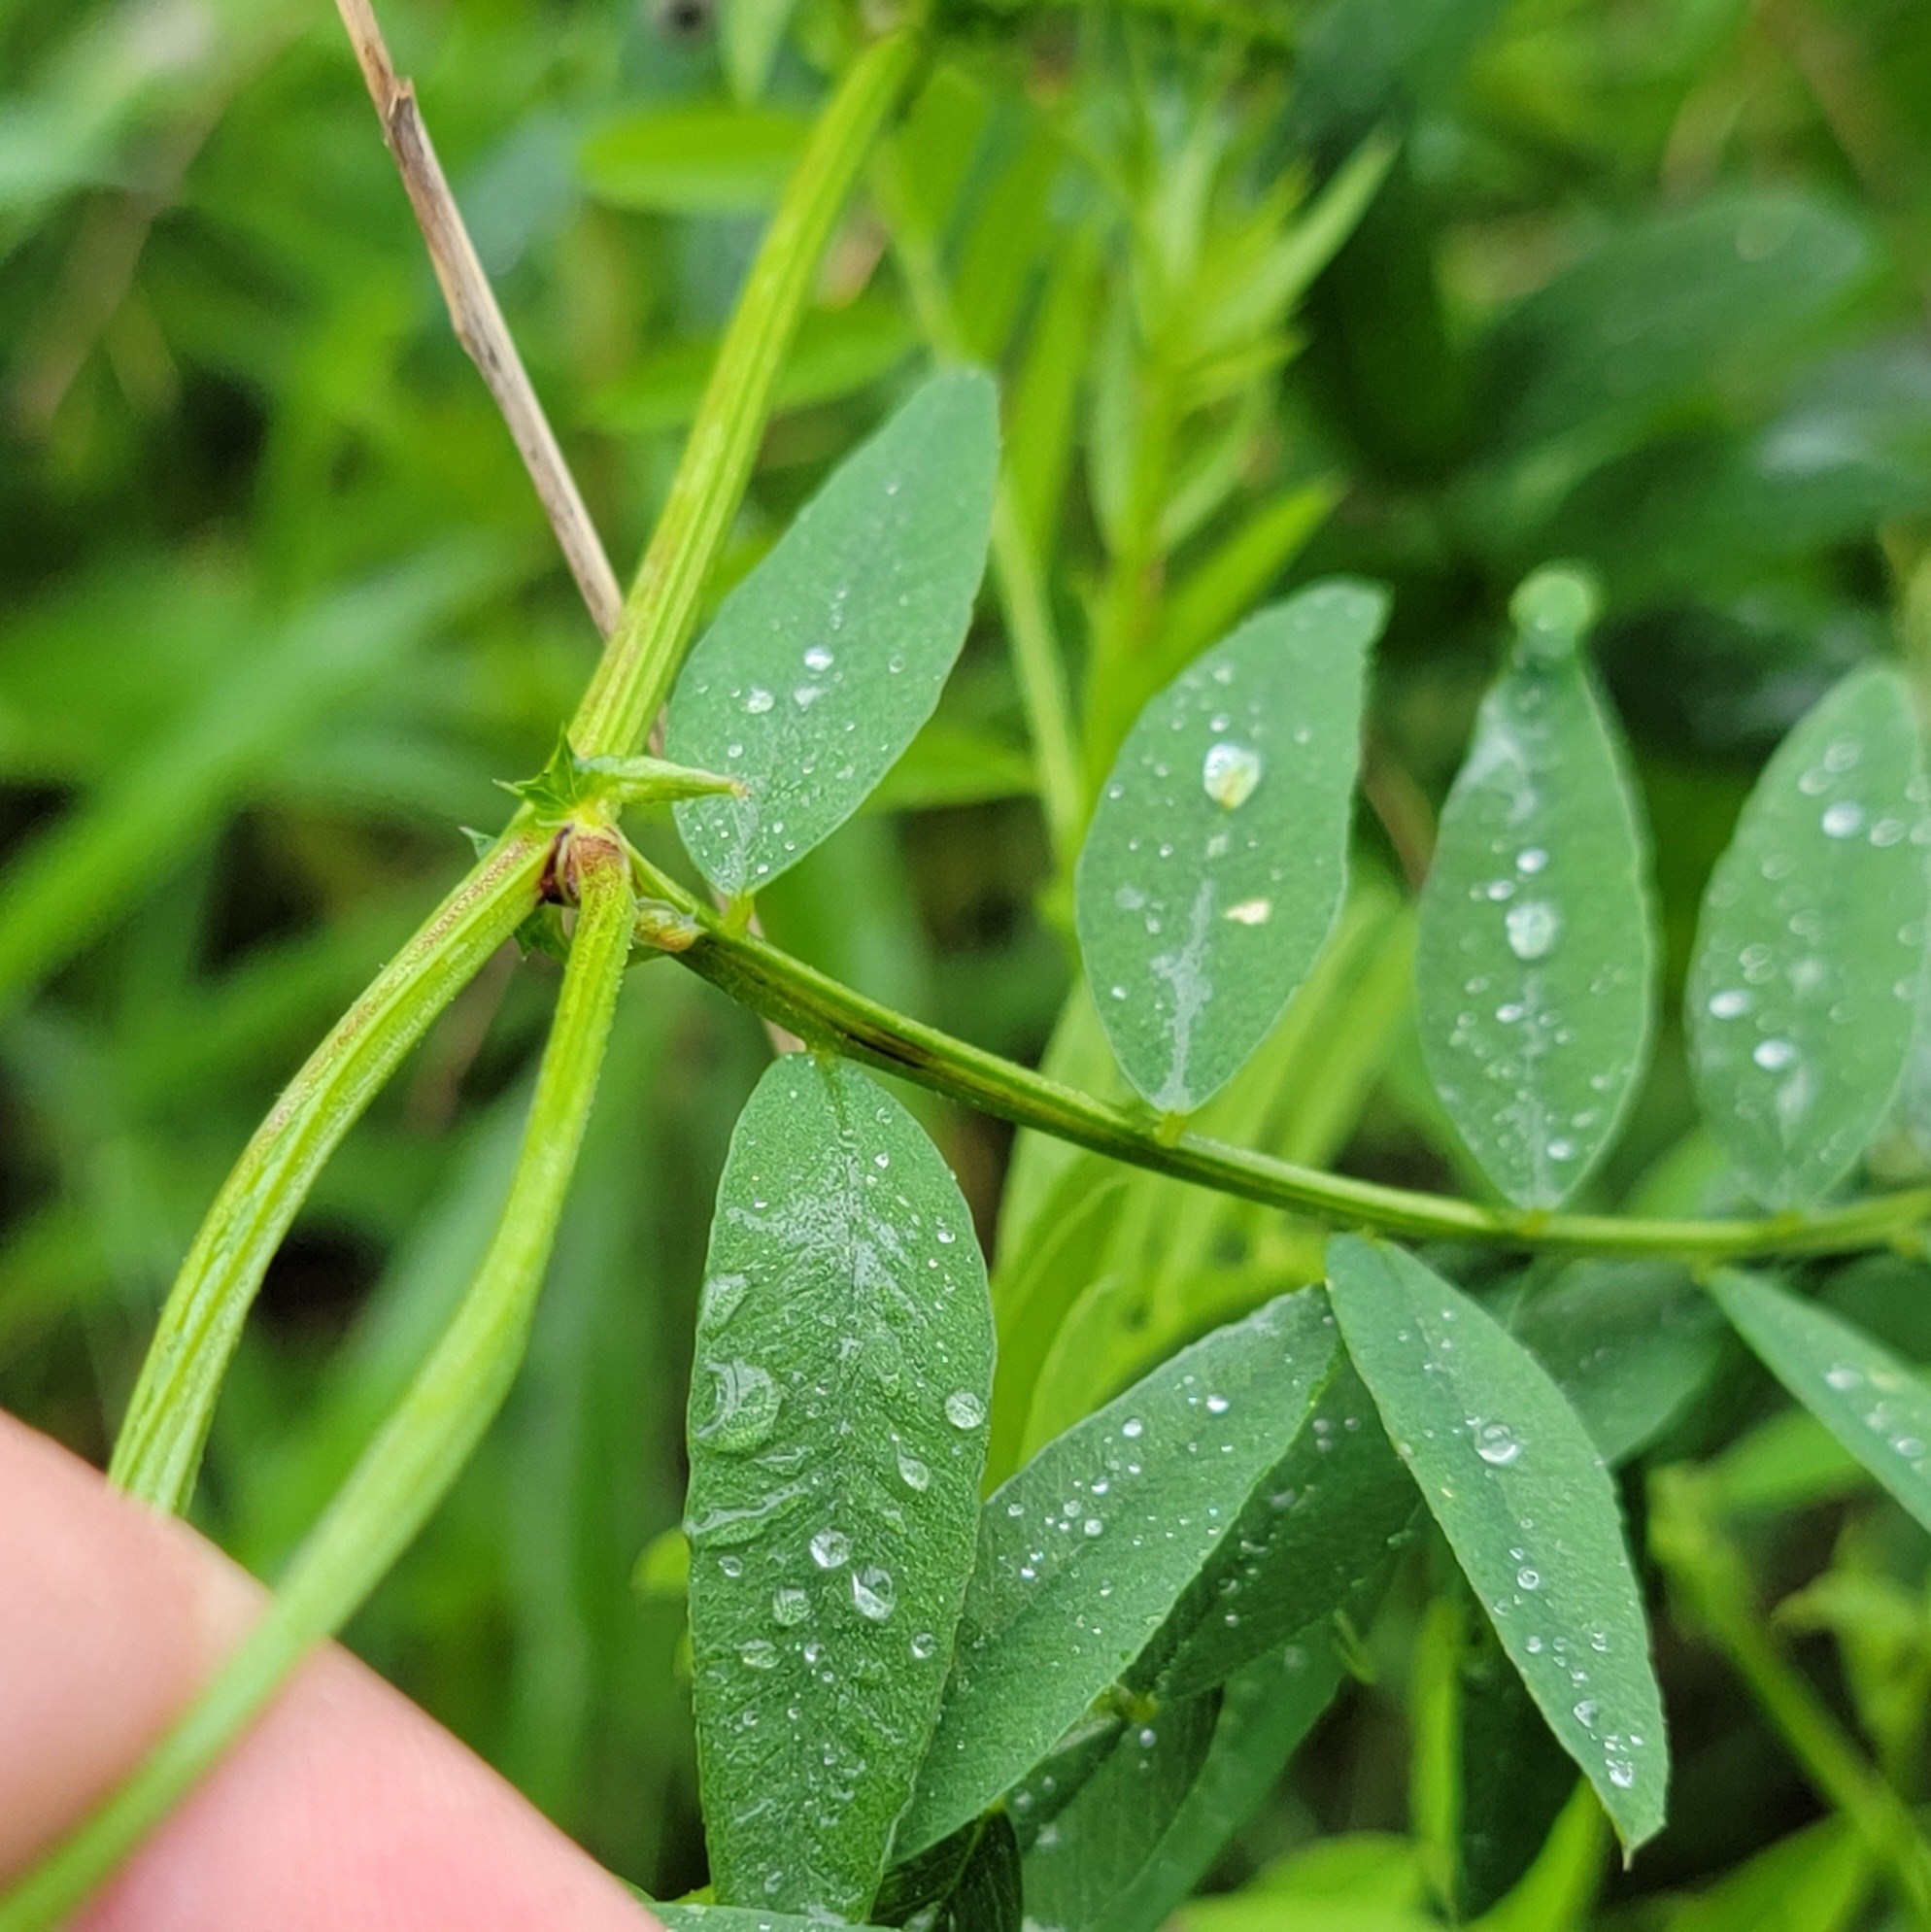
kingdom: Plantae
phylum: Tracheophyta
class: Magnoliopsida
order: Fabales
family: Fabaceae
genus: Vicia
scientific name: Vicia americana
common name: American vetch
